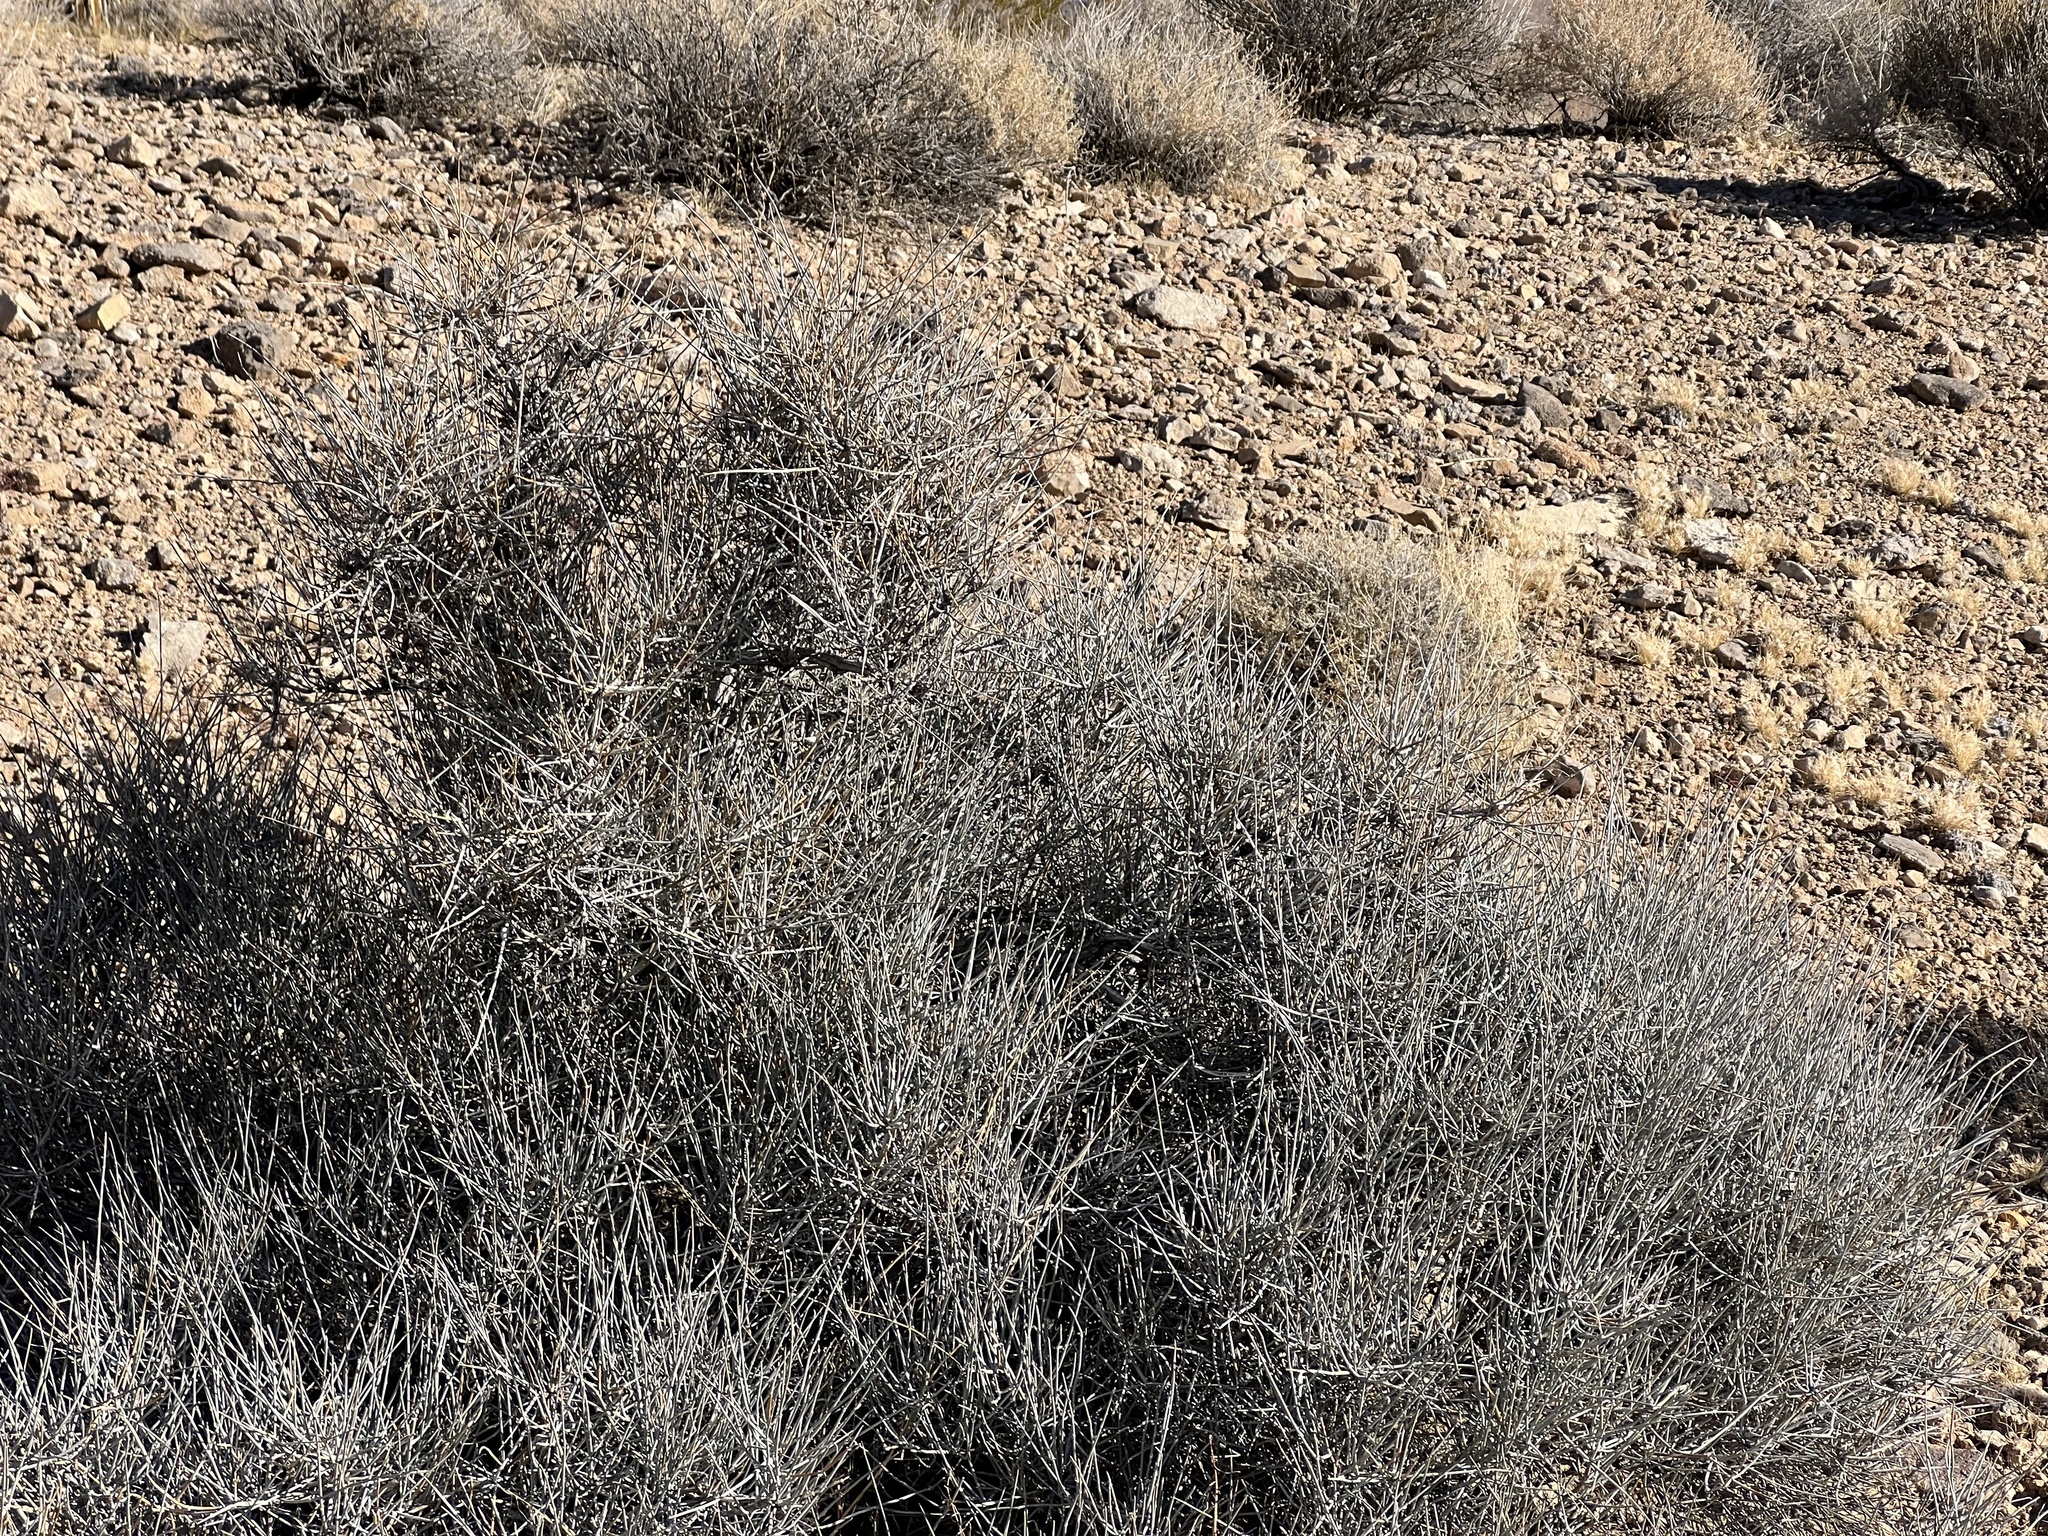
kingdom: Plantae
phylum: Tracheophyta
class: Gnetopsida
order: Ephedrales
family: Ephedraceae
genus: Ephedra
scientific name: Ephedra nevadensis
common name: Gray ephedra
